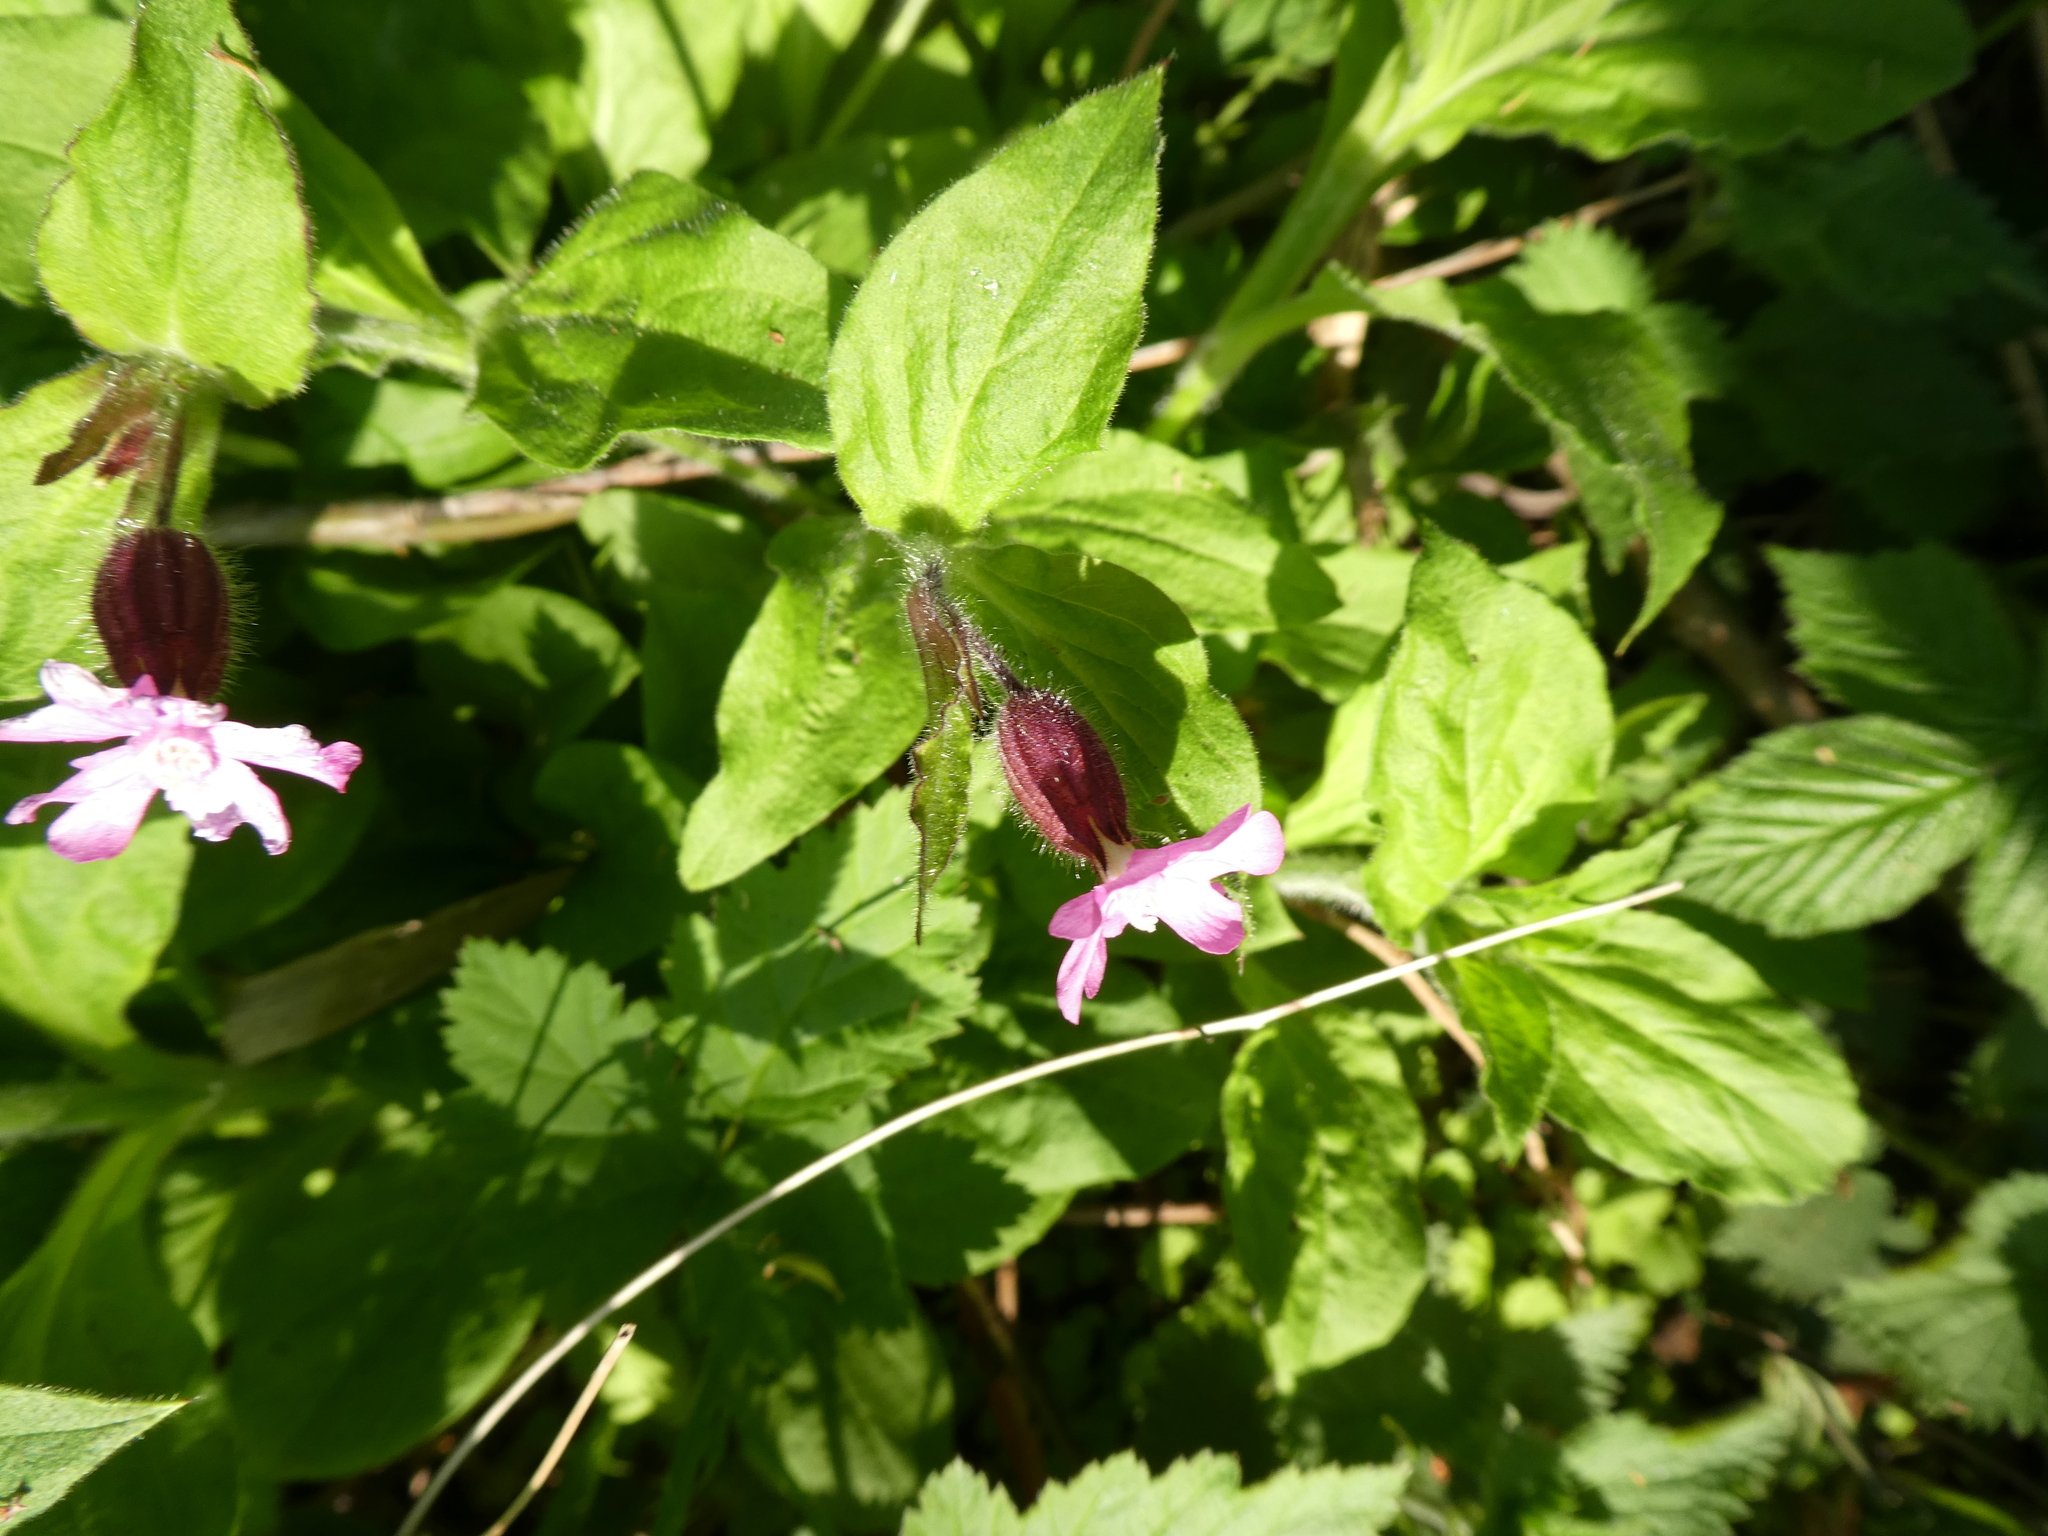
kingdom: Plantae
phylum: Tracheophyta
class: Magnoliopsida
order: Caryophyllales
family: Caryophyllaceae
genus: Silene
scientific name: Silene dioica
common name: Red campion
